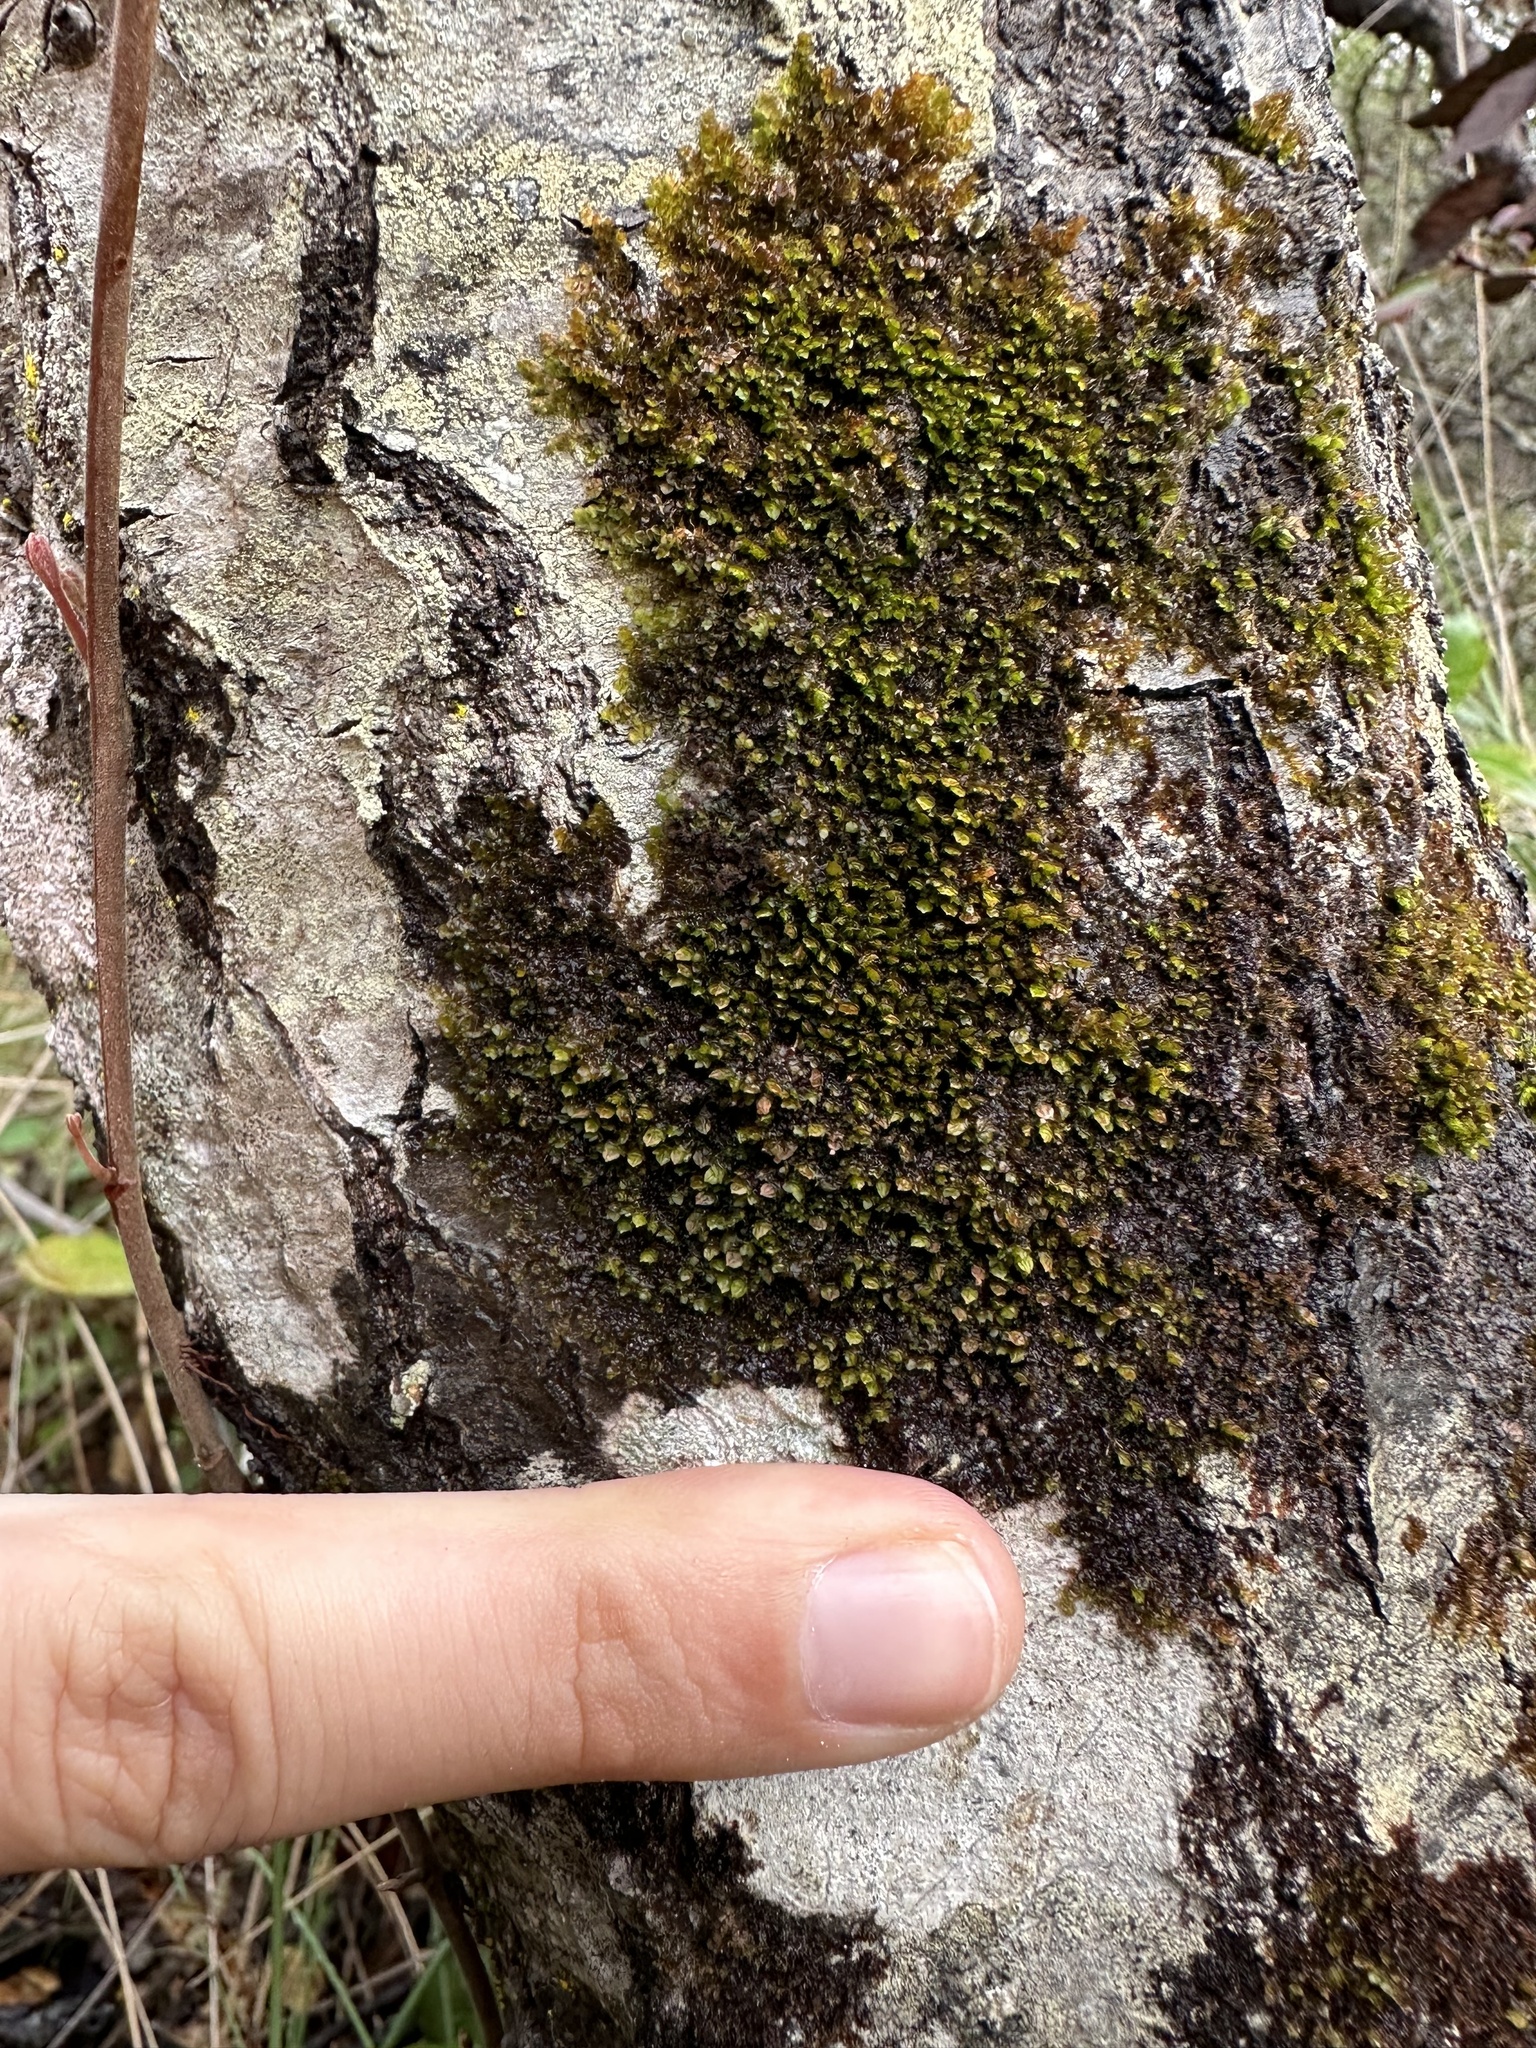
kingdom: Plantae
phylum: Marchantiophyta
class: Jungermanniopsida
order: Porellales
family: Frullaniaceae
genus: Frullania
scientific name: Frullania catalinae
